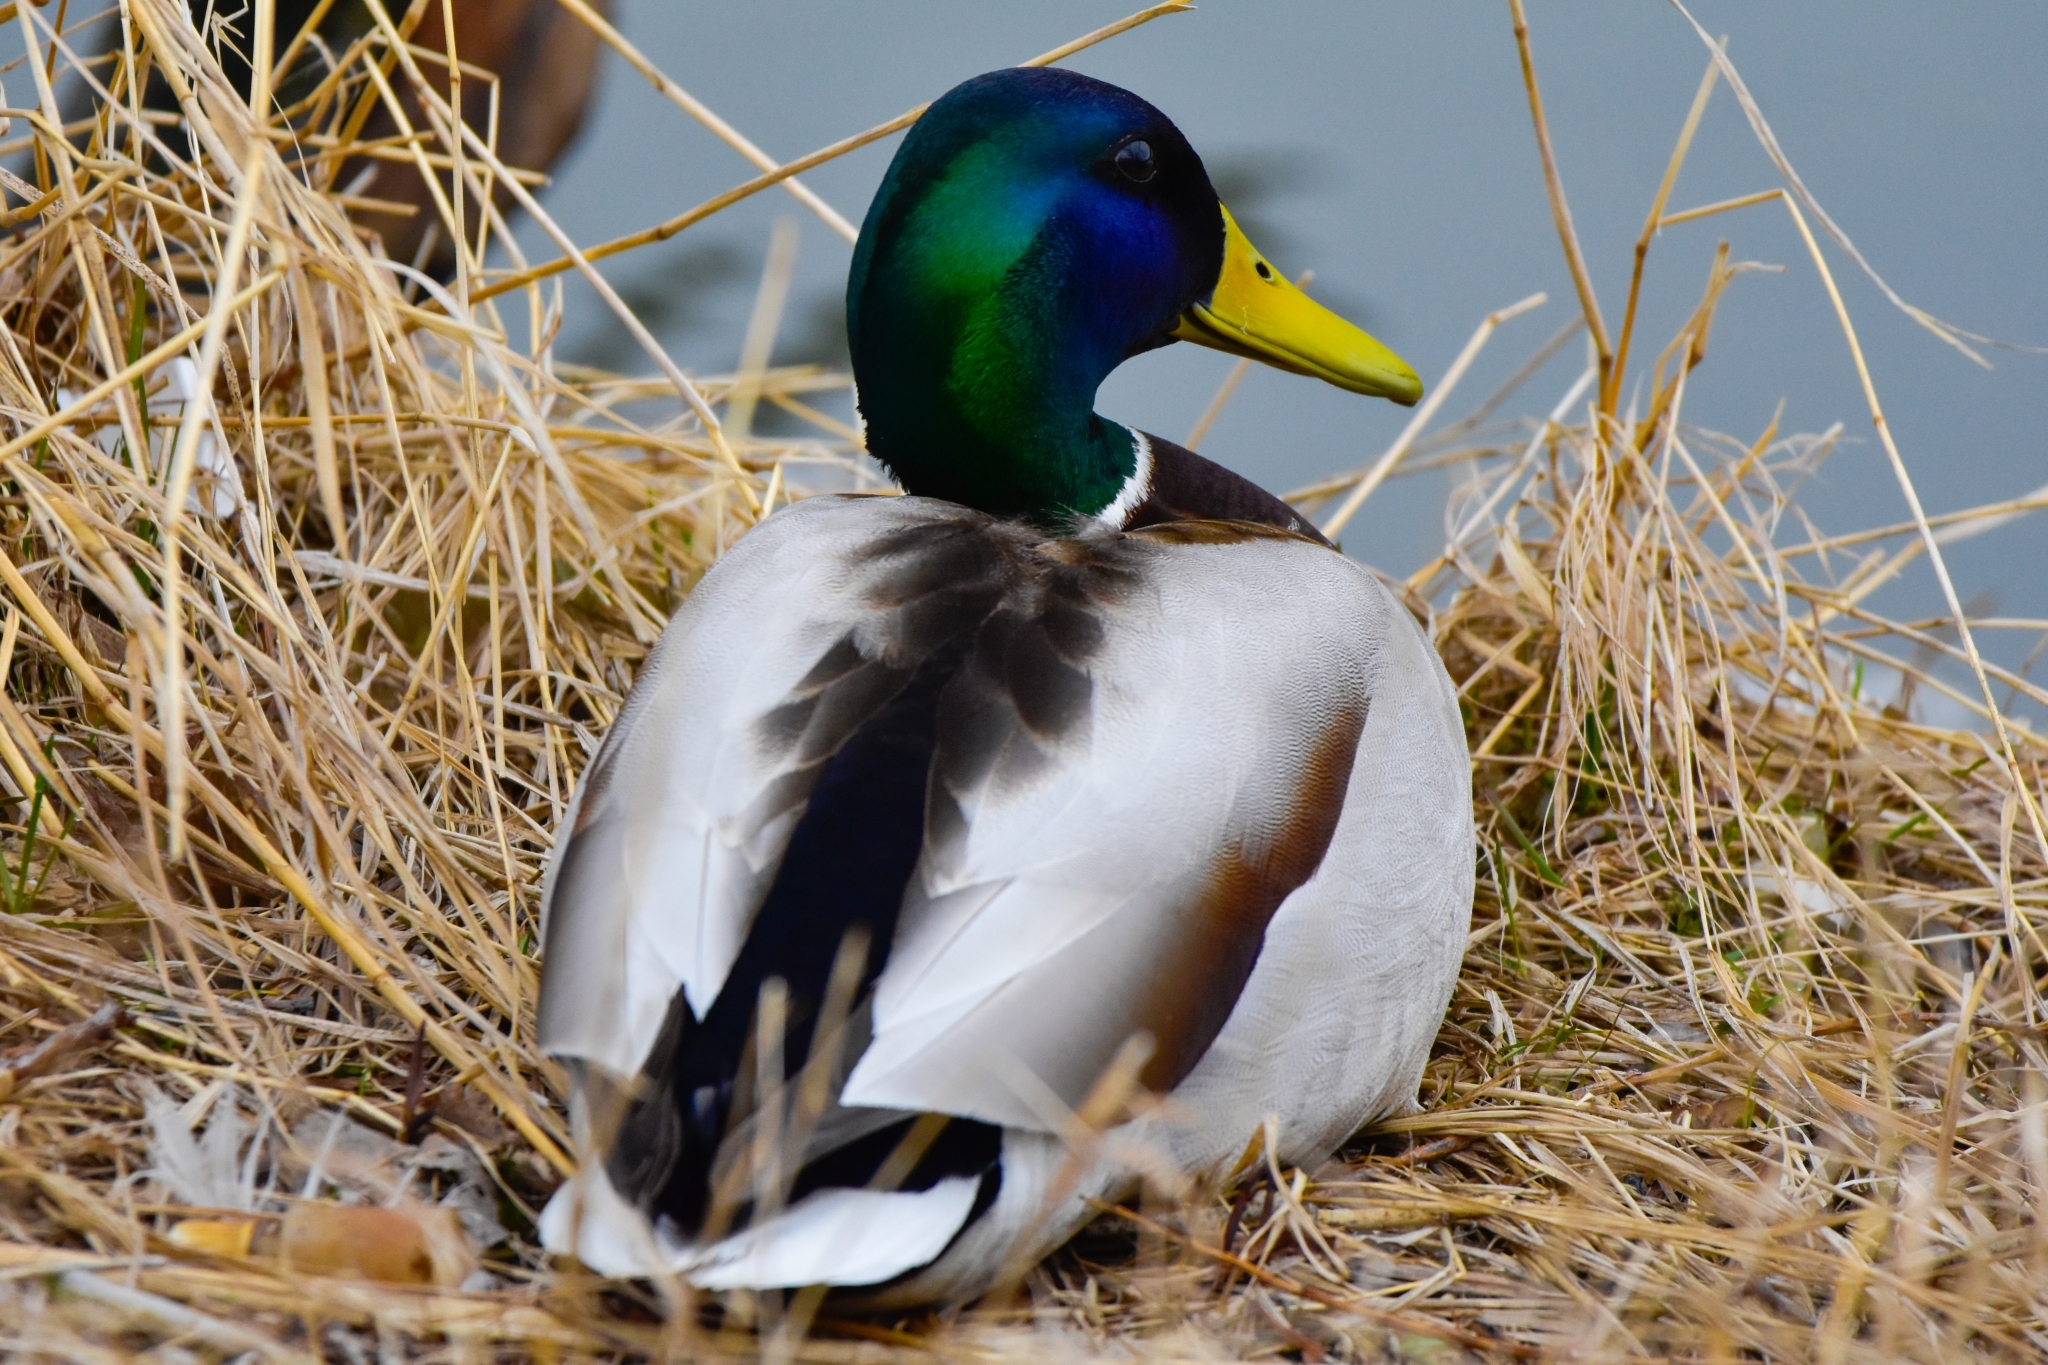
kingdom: Animalia
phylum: Chordata
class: Aves
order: Anseriformes
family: Anatidae
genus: Anas
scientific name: Anas platyrhynchos
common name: Mallard
